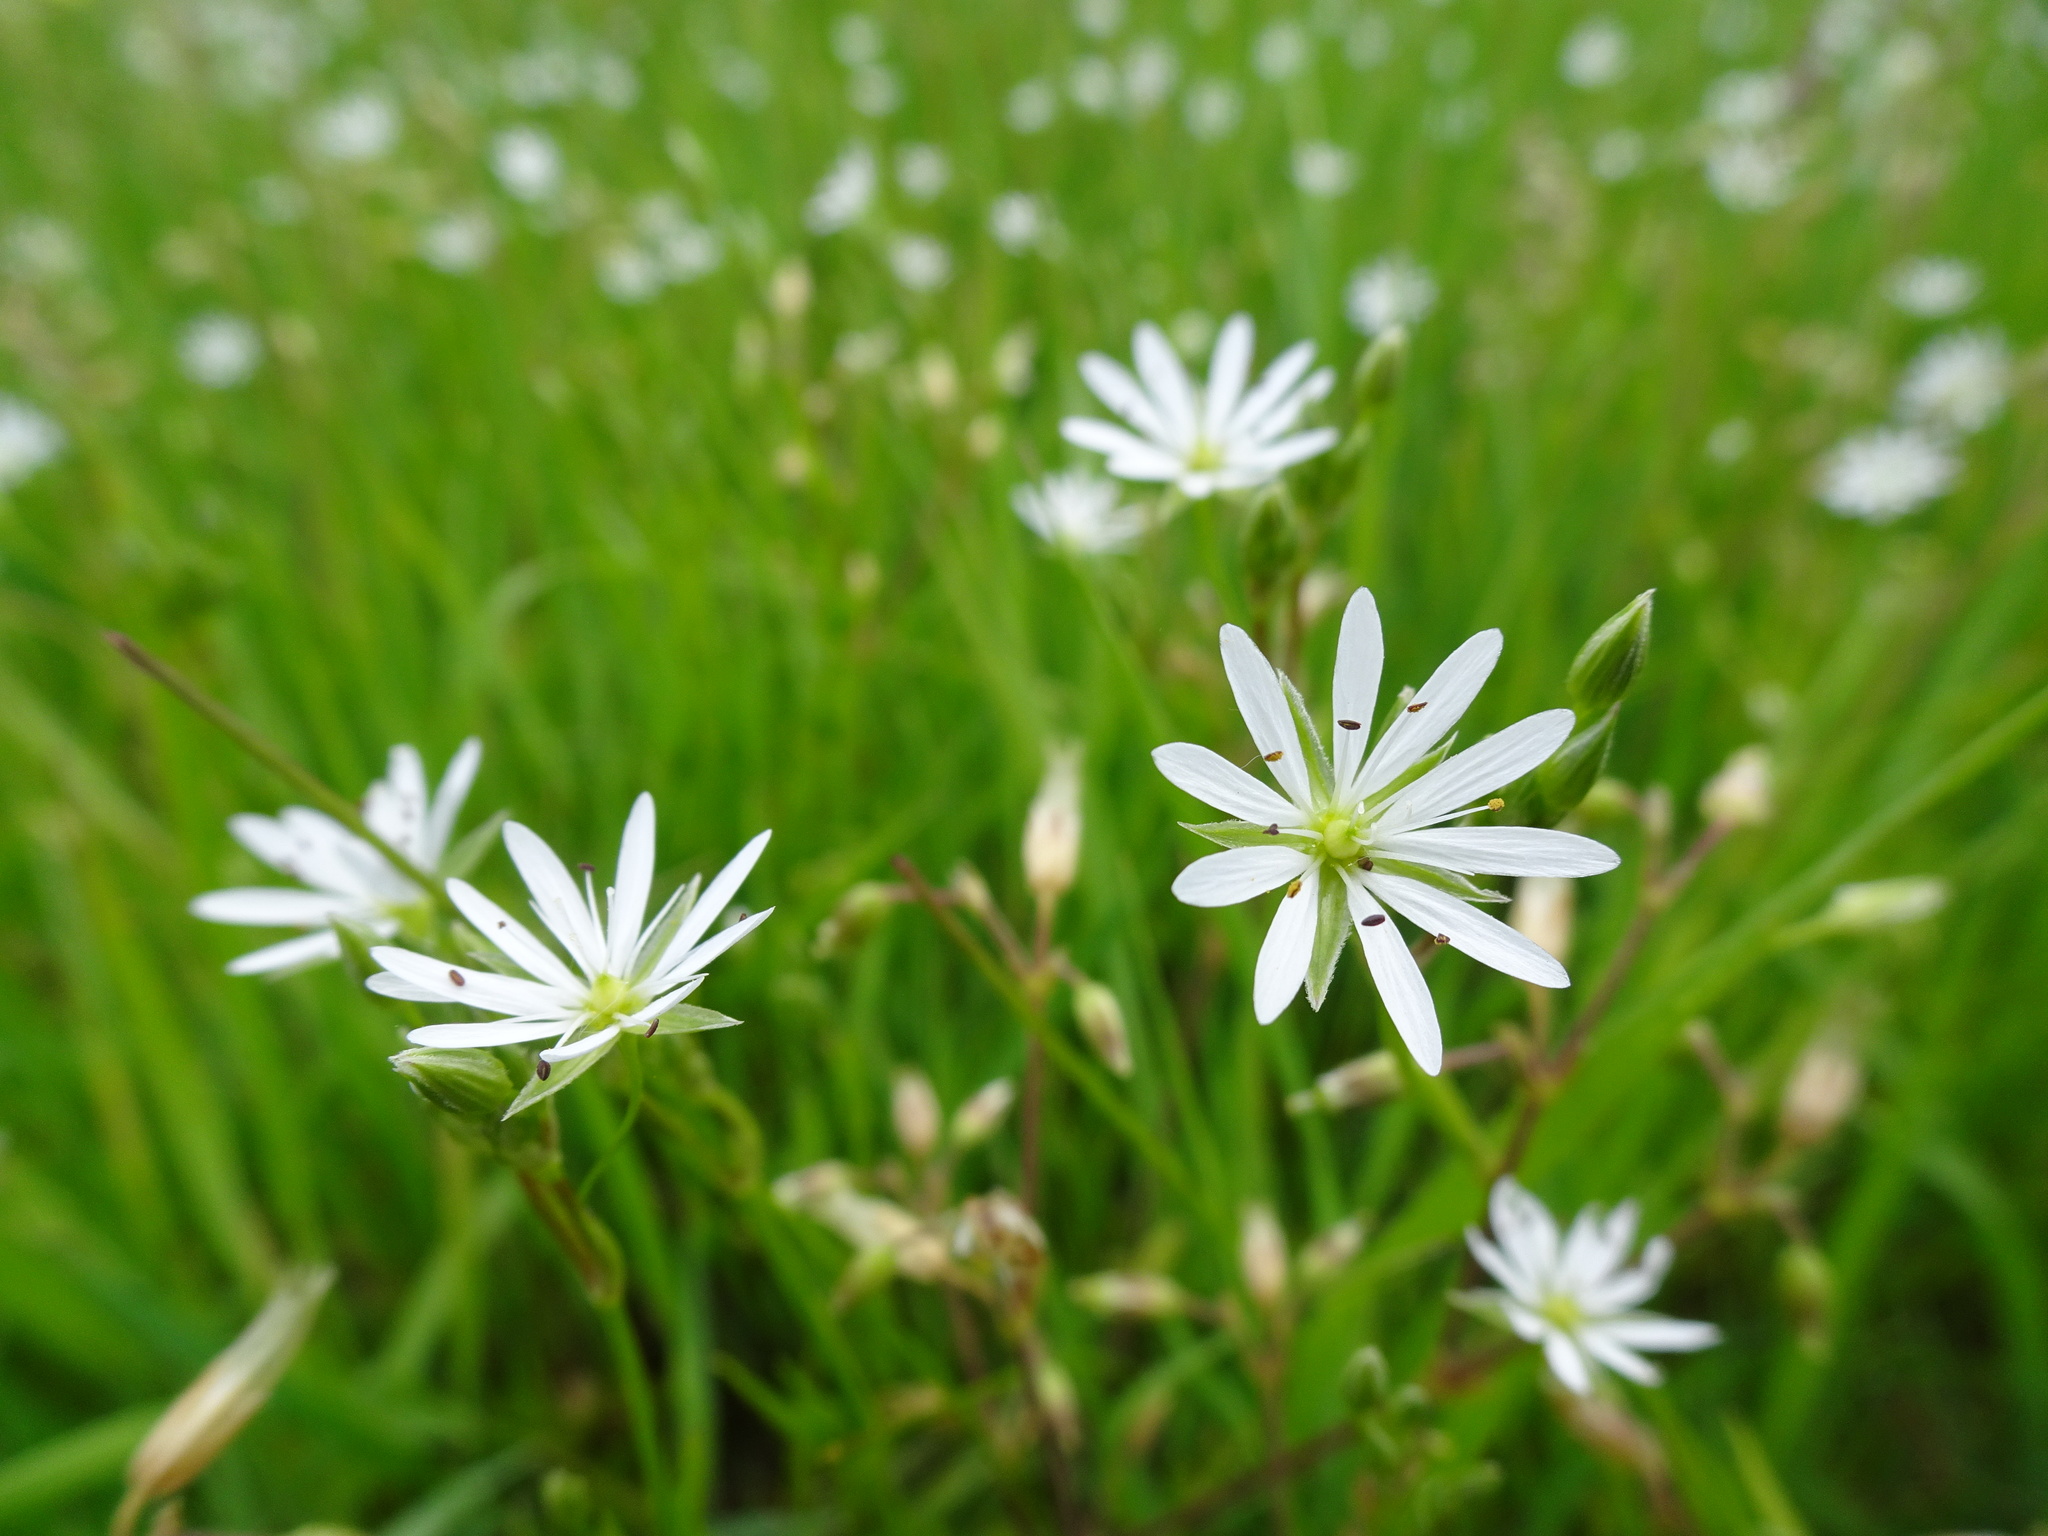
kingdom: Plantae
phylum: Tracheophyta
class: Magnoliopsida
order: Caryophyllales
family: Caryophyllaceae
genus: Stellaria
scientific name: Stellaria graminea
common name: Grass-like starwort
